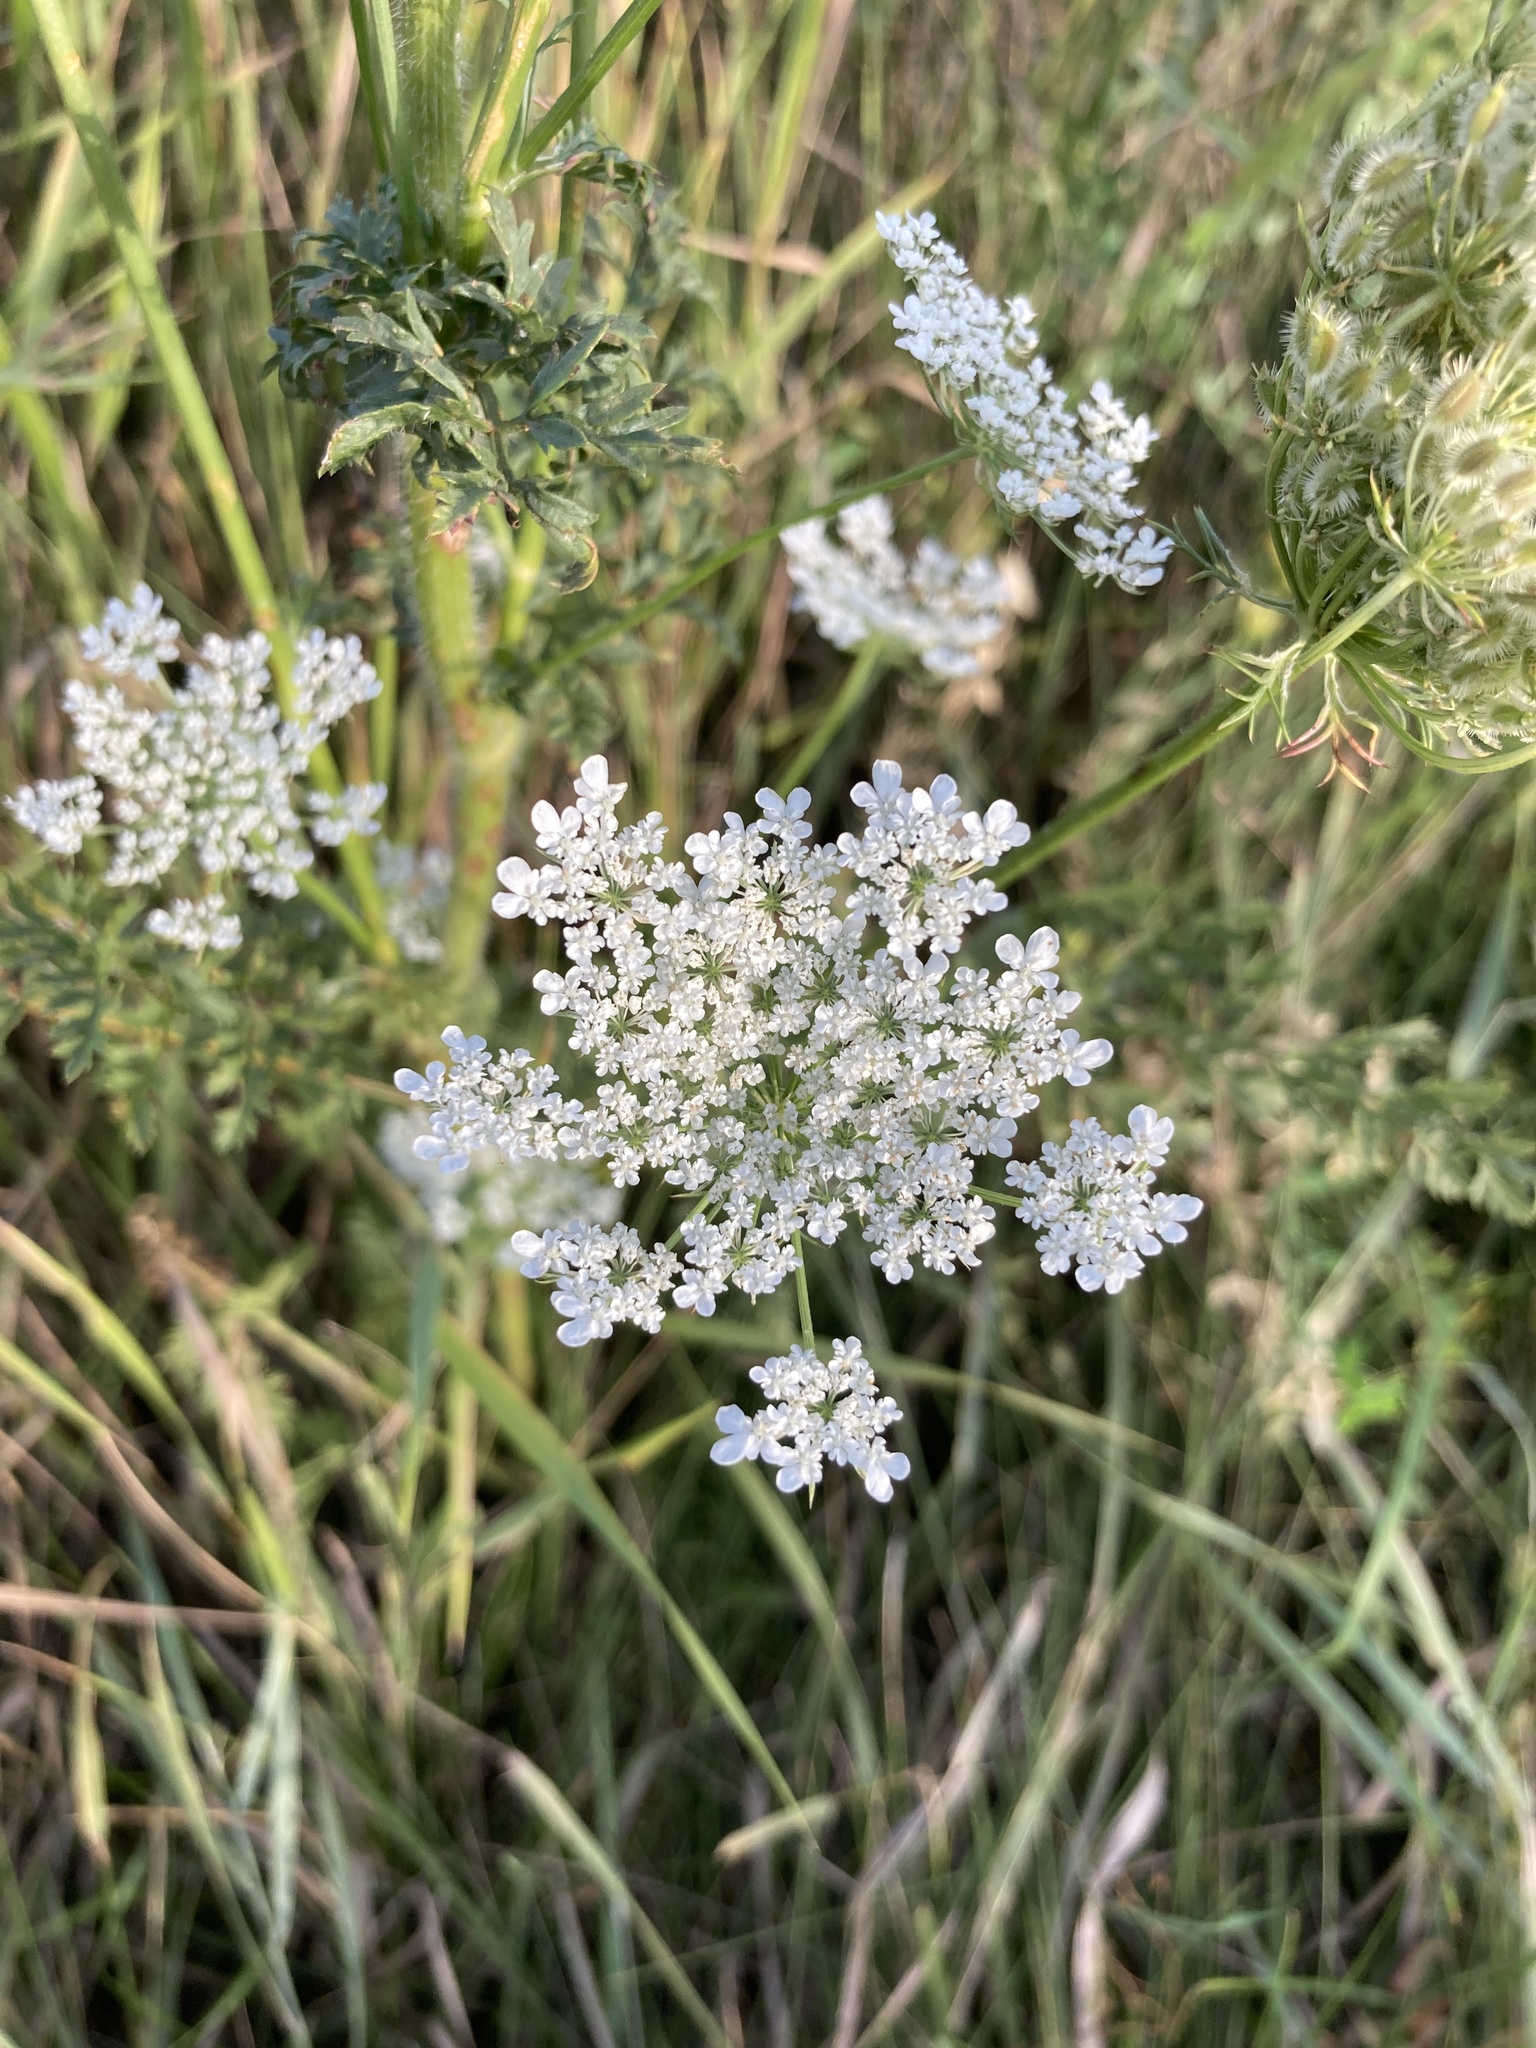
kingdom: Plantae
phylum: Tracheophyta
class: Magnoliopsida
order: Apiales
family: Apiaceae
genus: Daucus
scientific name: Daucus carota
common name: Wild carrot
